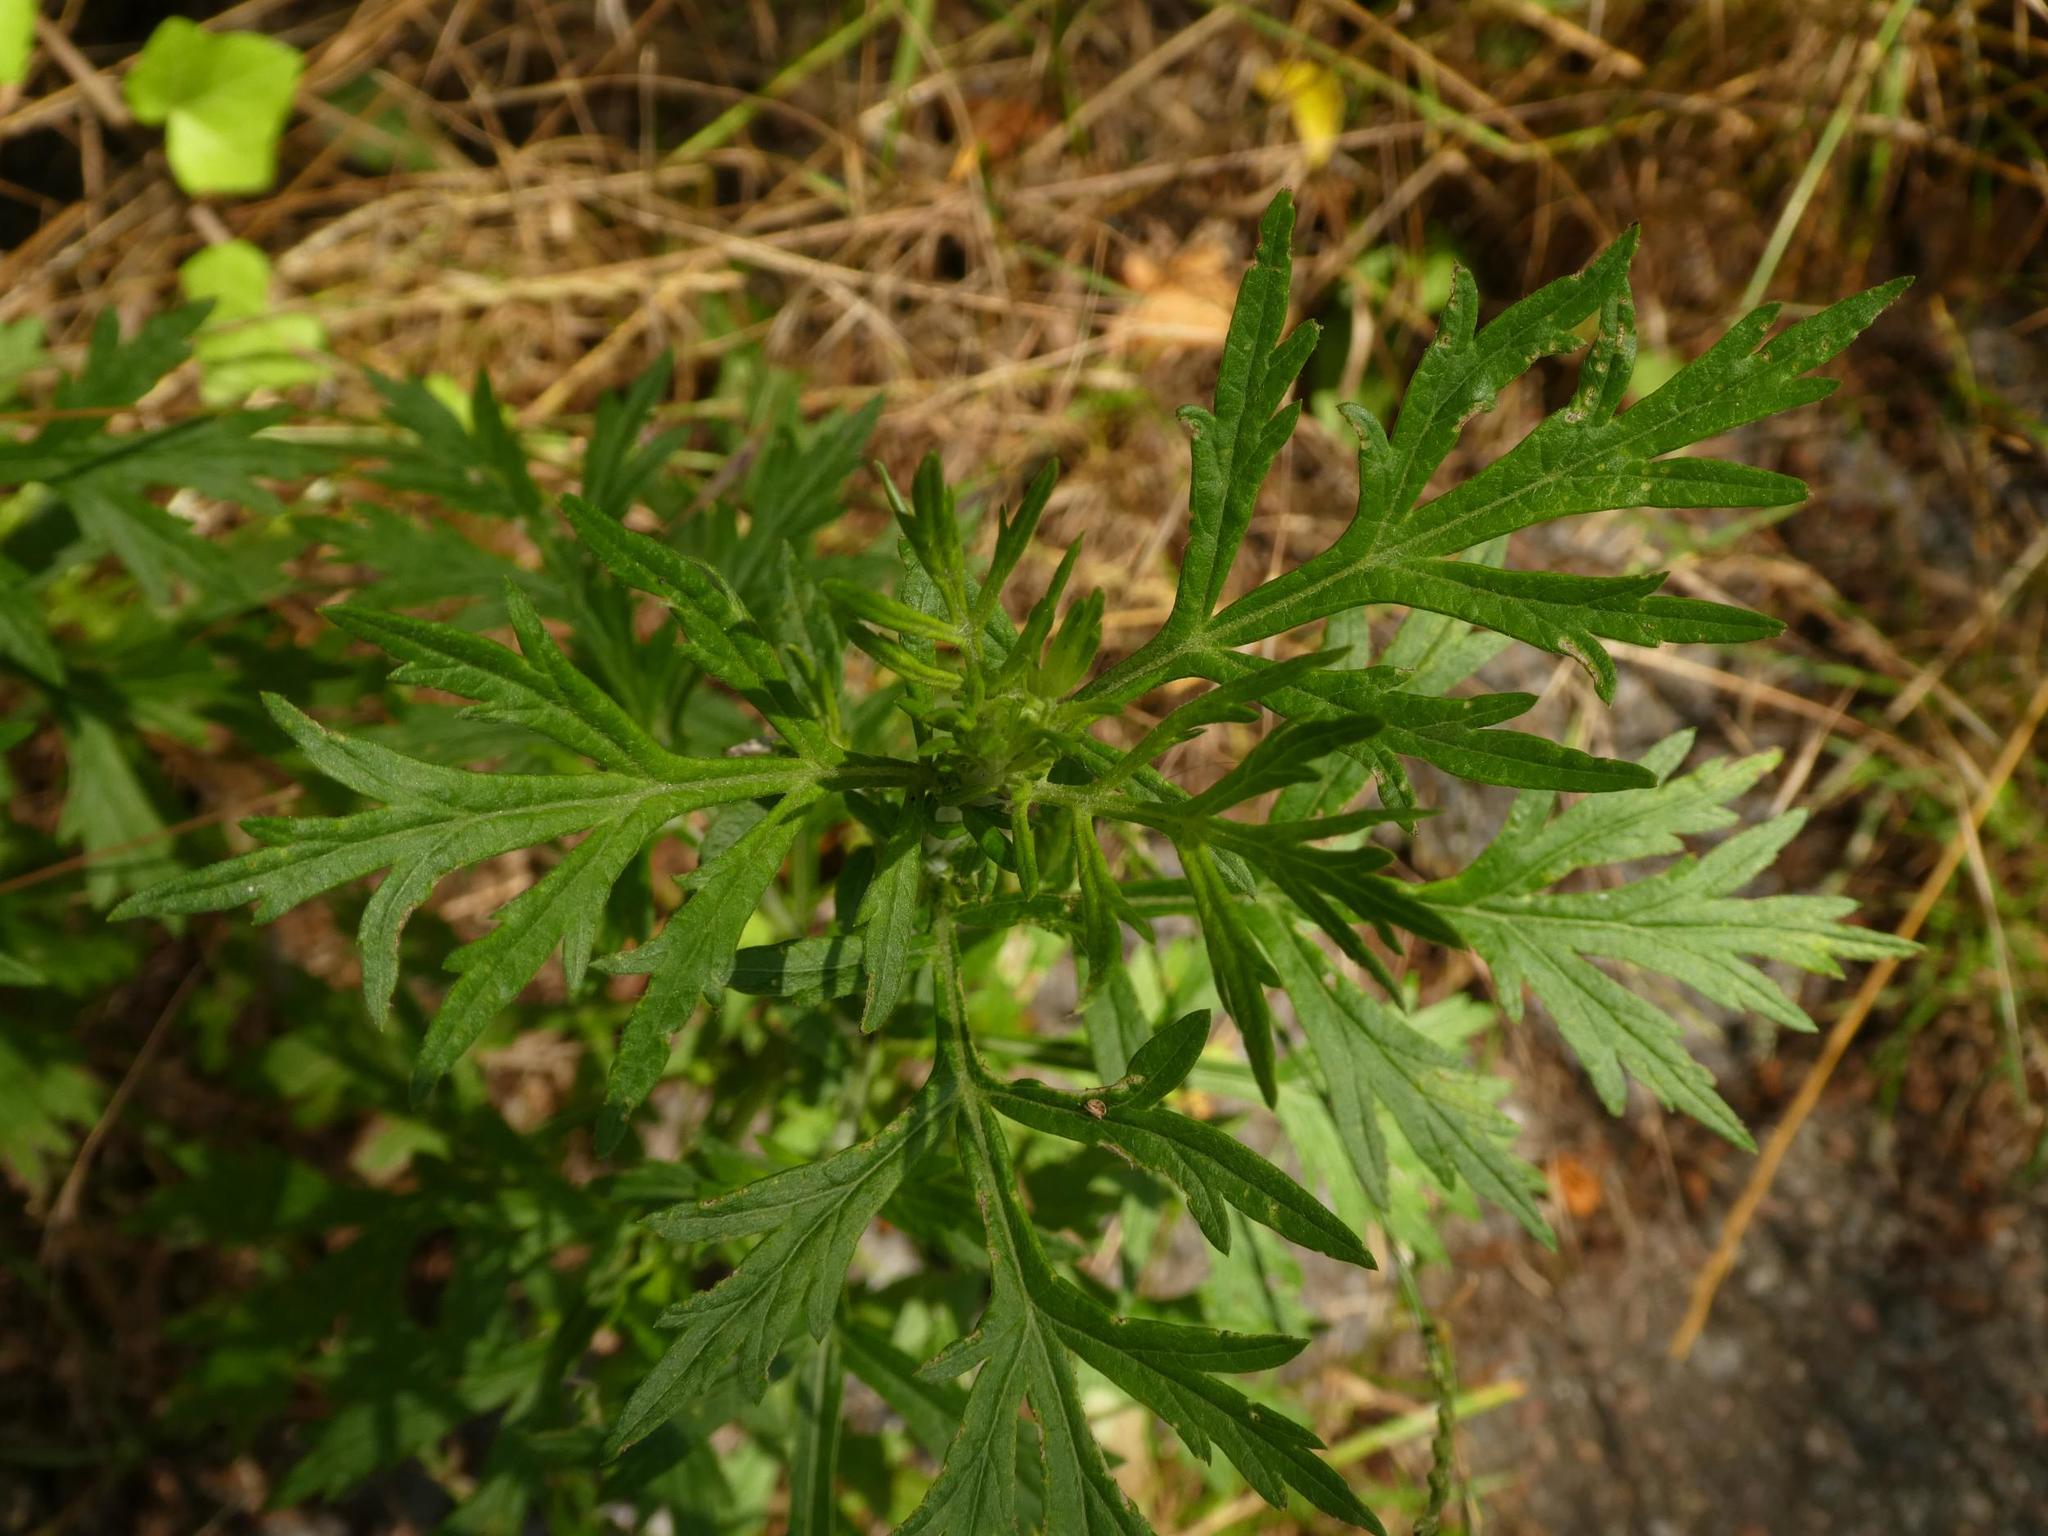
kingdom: Plantae
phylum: Tracheophyta
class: Magnoliopsida
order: Asterales
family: Asteraceae
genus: Artemisia
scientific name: Artemisia vulgaris
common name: Mugwort
